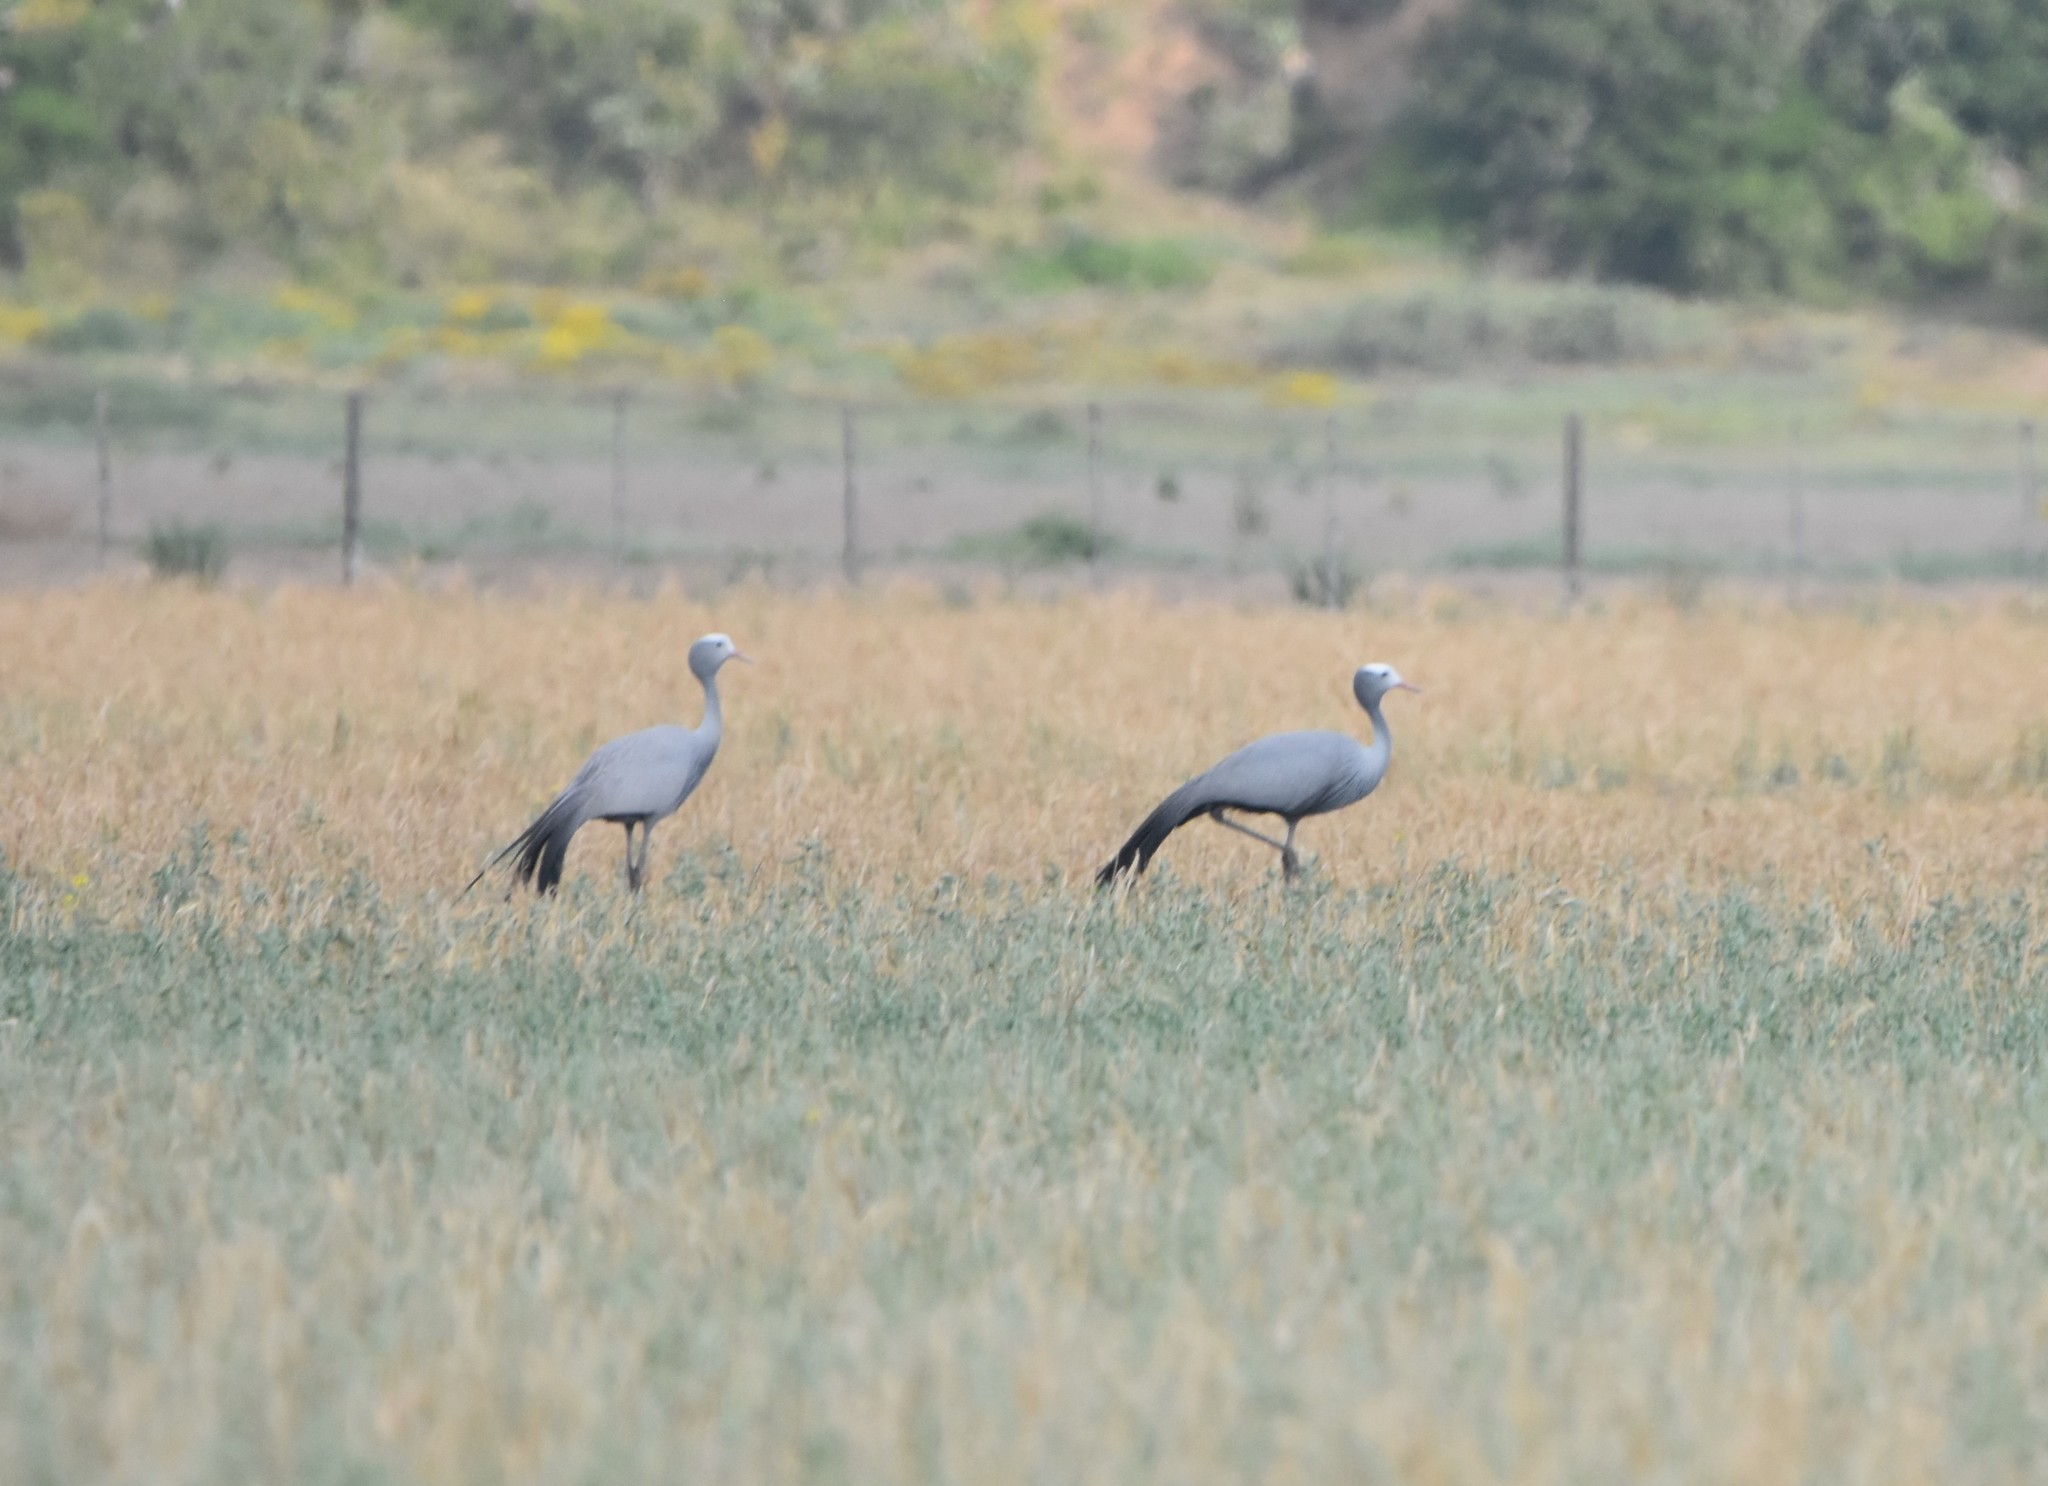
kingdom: Animalia
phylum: Chordata
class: Aves
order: Gruiformes
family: Gruidae
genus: Anthropoides
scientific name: Anthropoides paradiseus
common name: Blue crane
